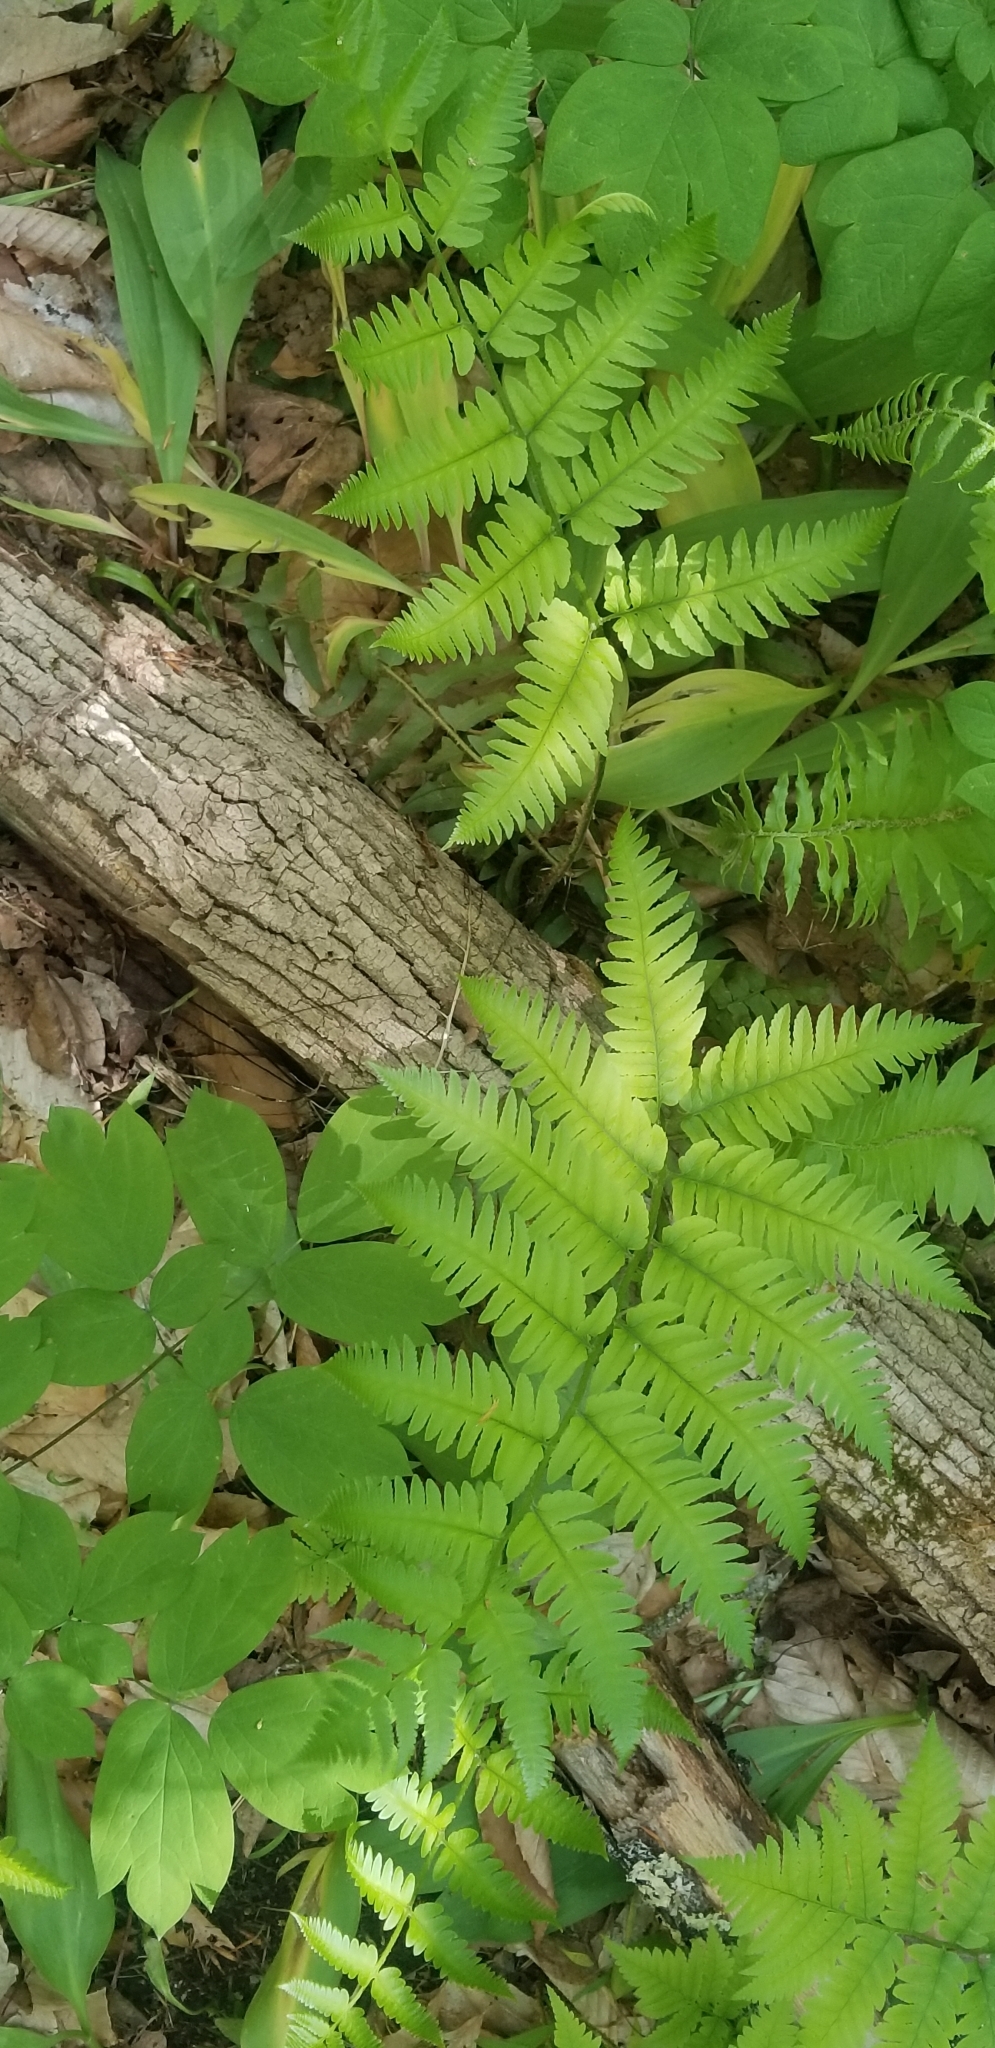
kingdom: Plantae
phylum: Tracheophyta
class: Polypodiopsida
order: Polypodiales
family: Dryopteridaceae
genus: Dryopteris
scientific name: Dryopteris goldieana
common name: Goldie's fern
